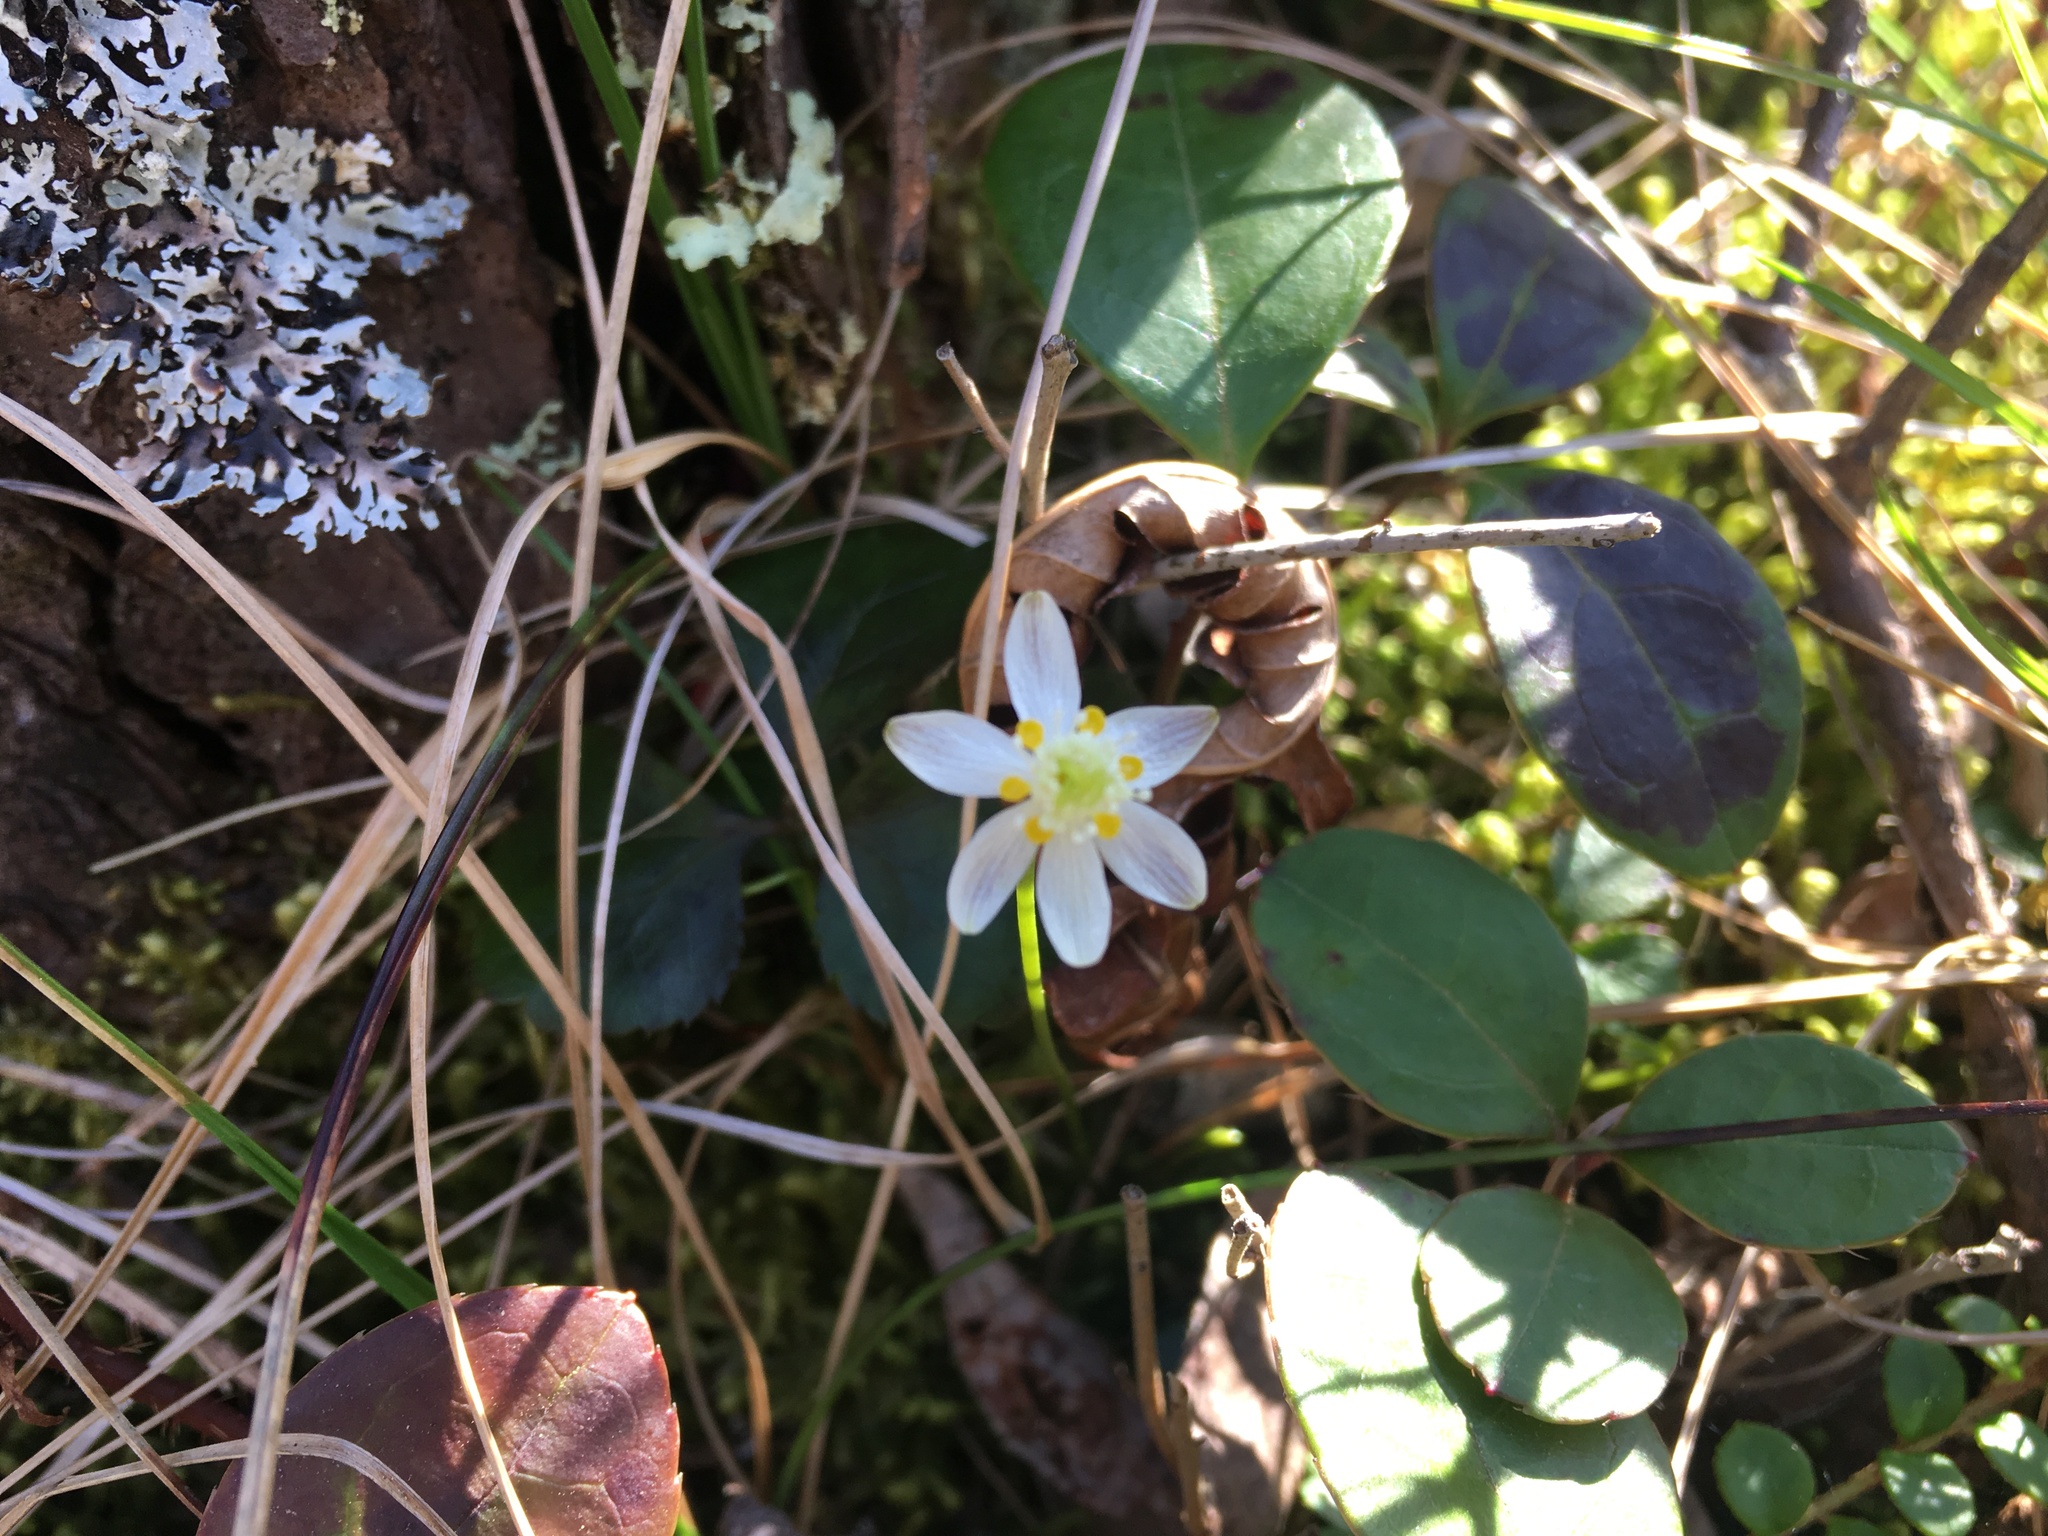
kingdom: Plantae
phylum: Tracheophyta
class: Magnoliopsida
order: Ranunculales
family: Ranunculaceae
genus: Coptis
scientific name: Coptis trifolia
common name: Canker-root
